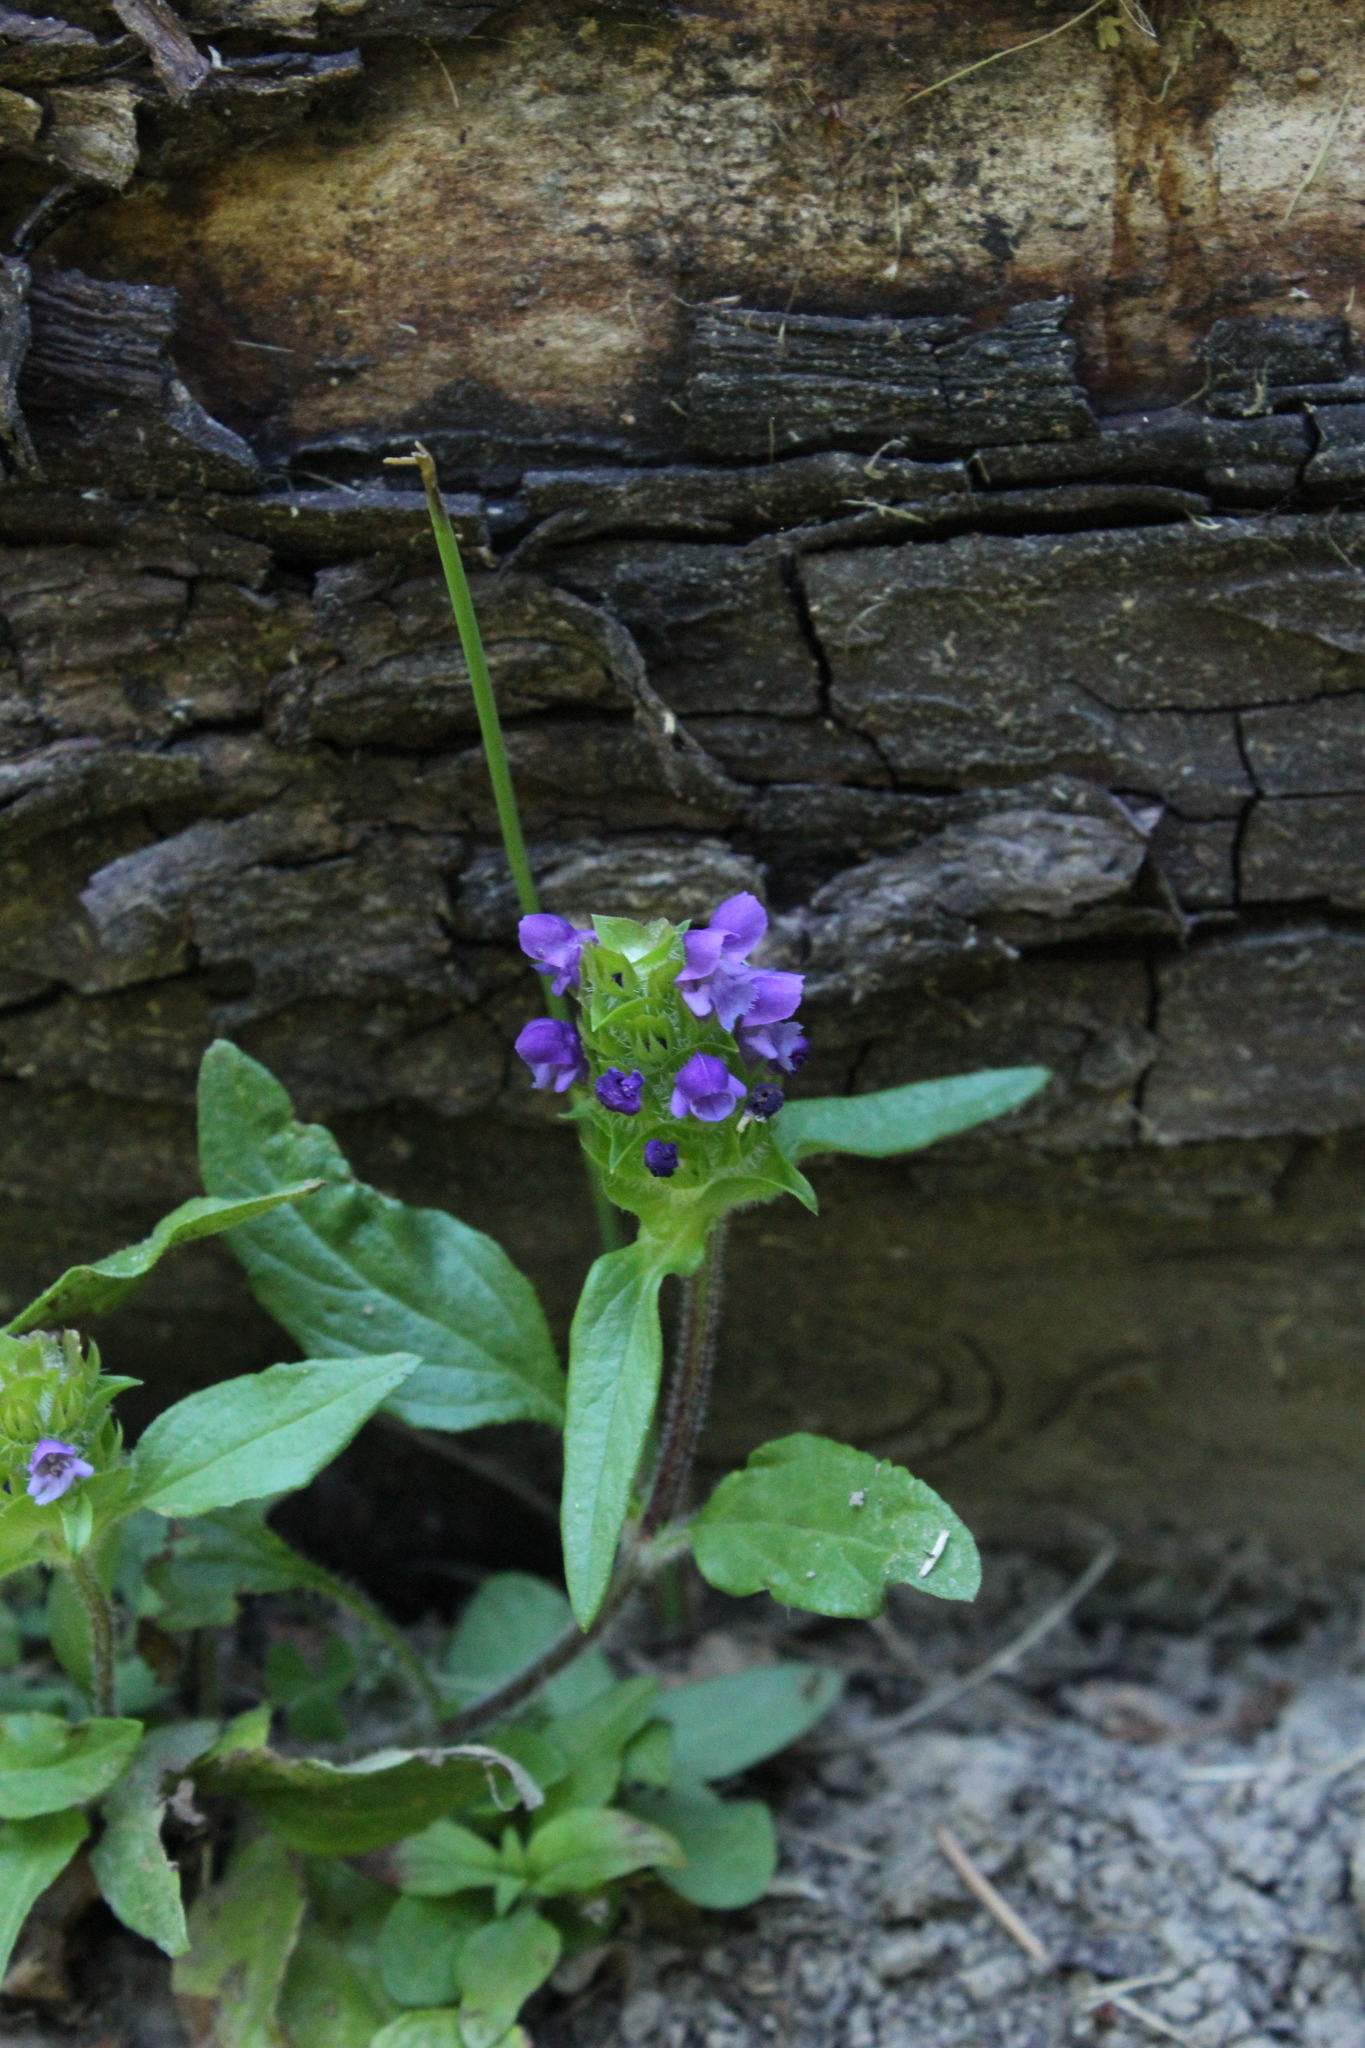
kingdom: Plantae
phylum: Tracheophyta
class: Magnoliopsida
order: Lamiales
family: Lamiaceae
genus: Prunella
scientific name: Prunella vulgaris
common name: Heal-all
